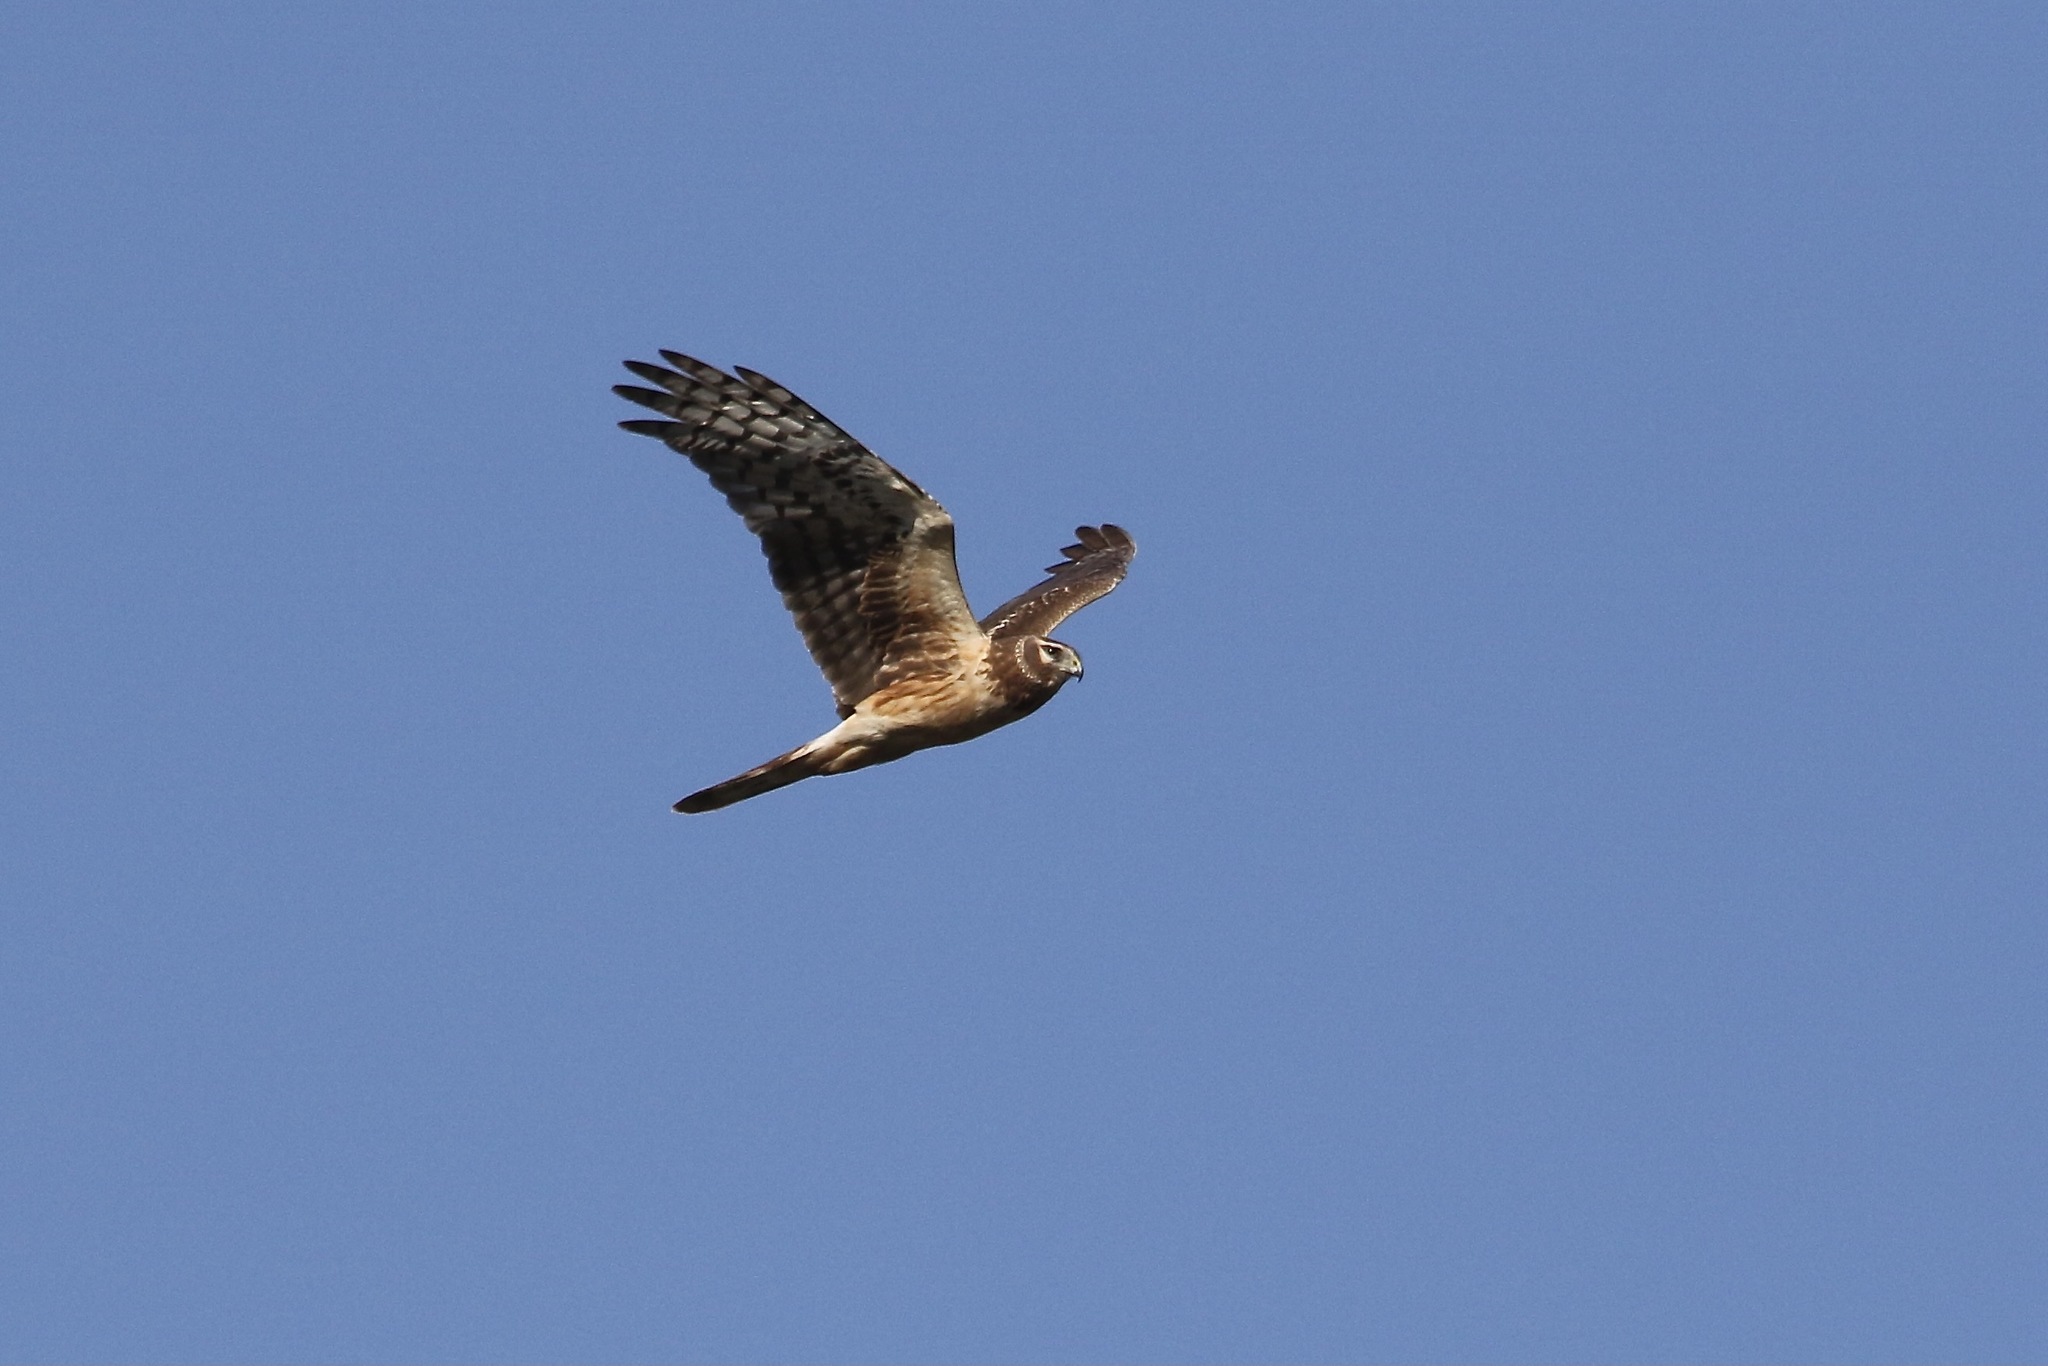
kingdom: Animalia
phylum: Chordata
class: Aves
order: Accipitriformes
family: Accipitridae
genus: Circus
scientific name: Circus cyaneus
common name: Hen harrier
